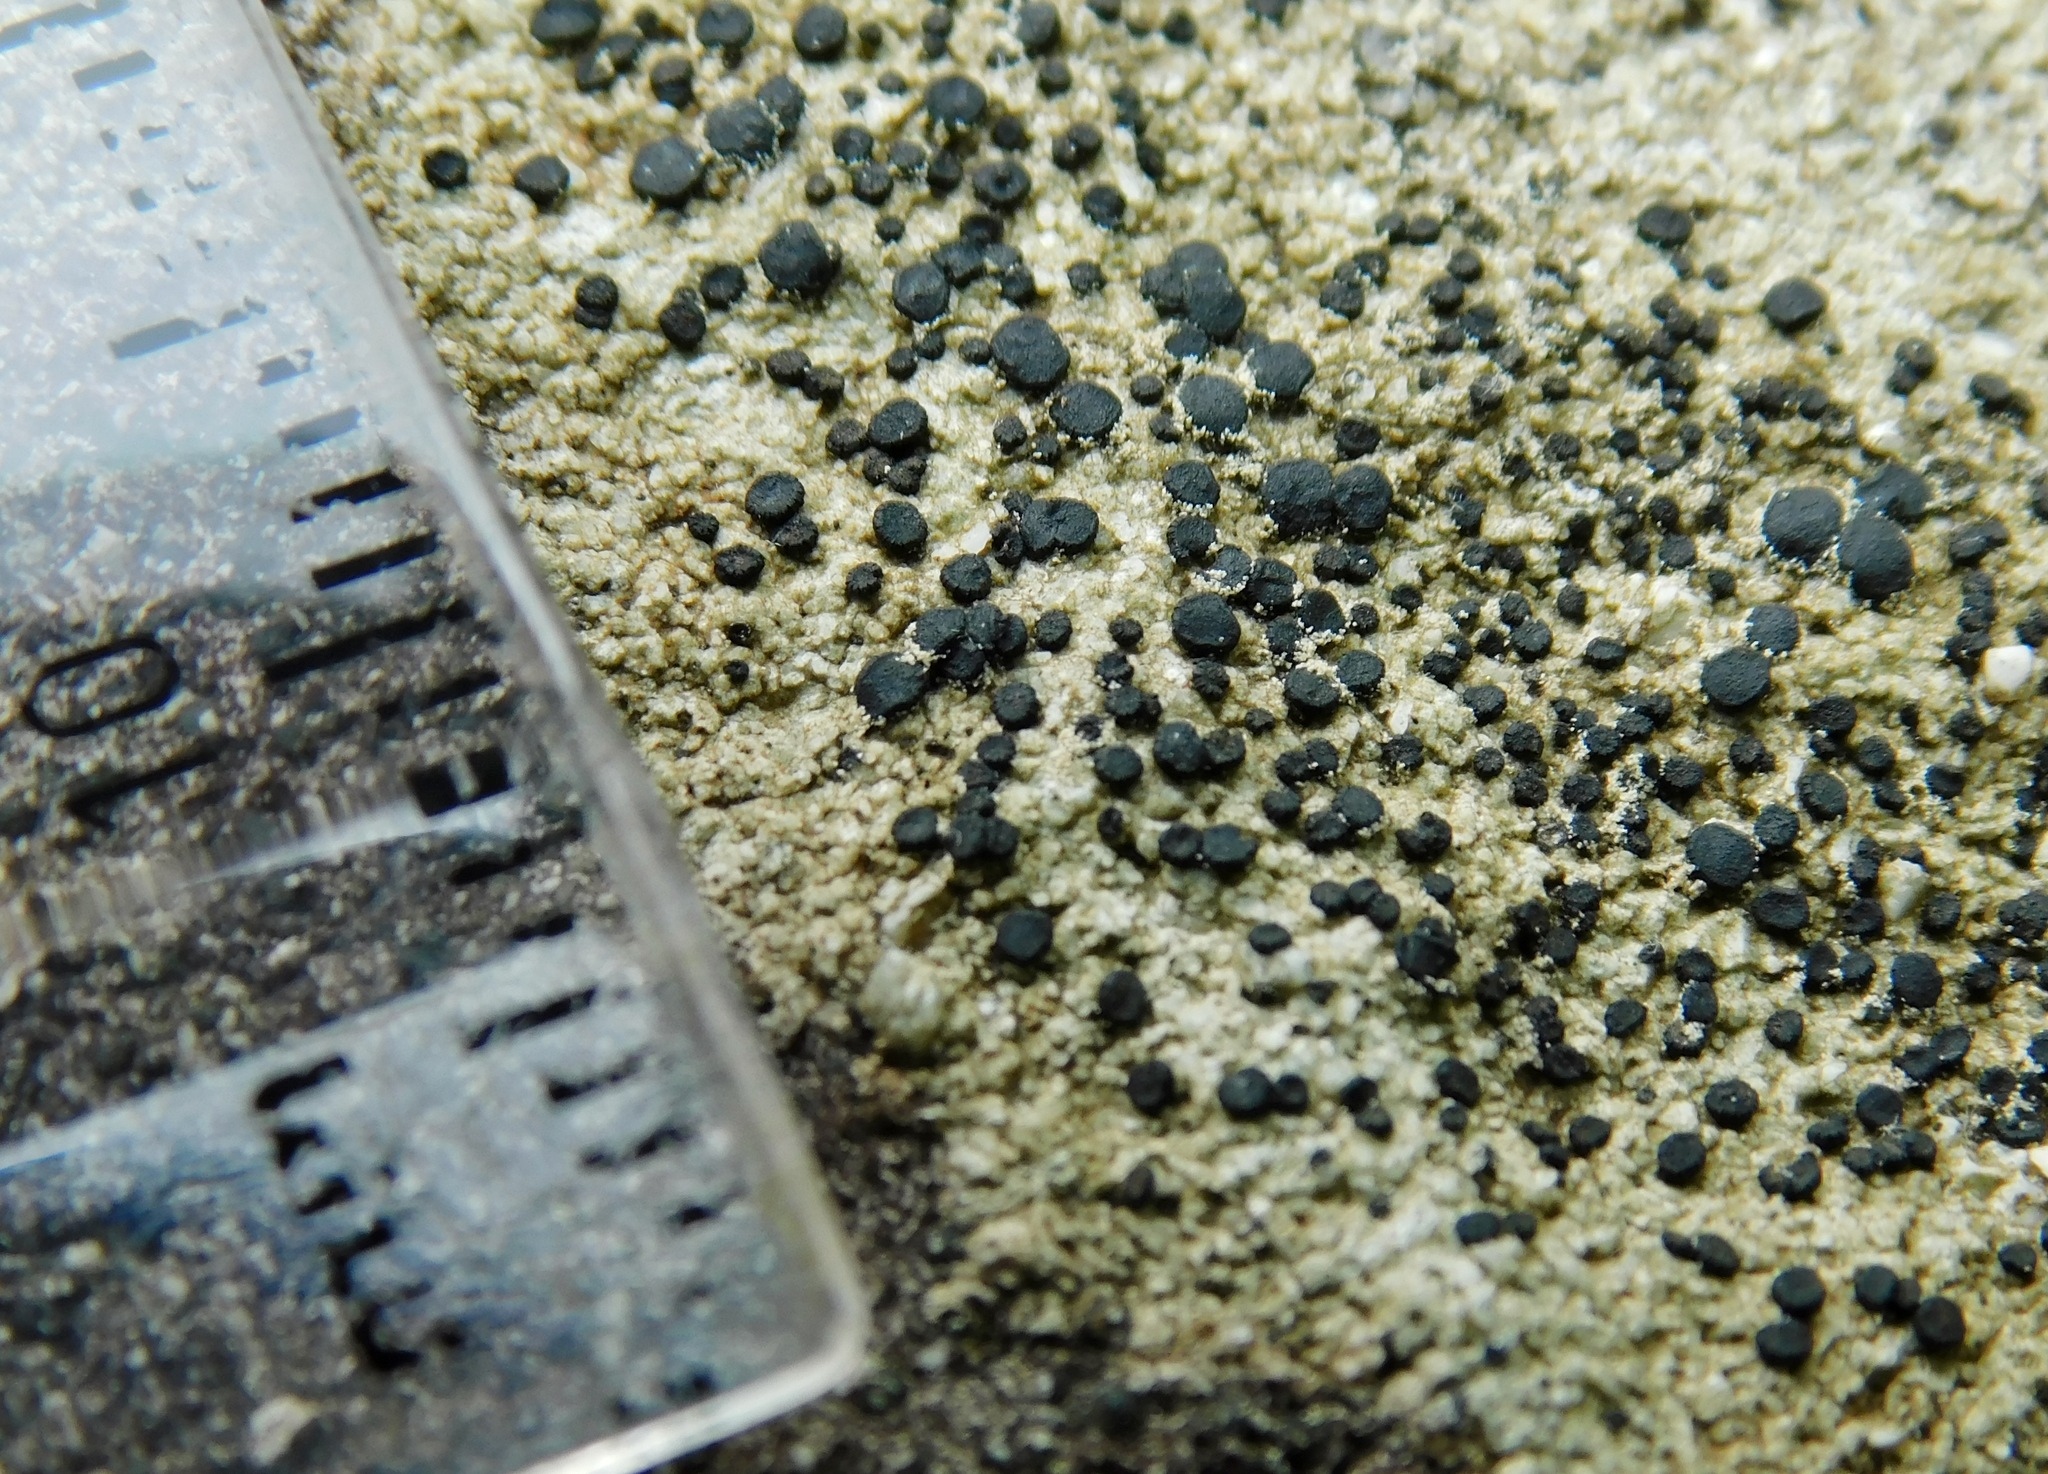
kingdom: Fungi
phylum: Ascomycota
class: Lecanoromycetes
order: Lecanorales
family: Lecanoraceae
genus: Lecidella
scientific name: Lecidella stigmatea
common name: Limestone disc lichen
